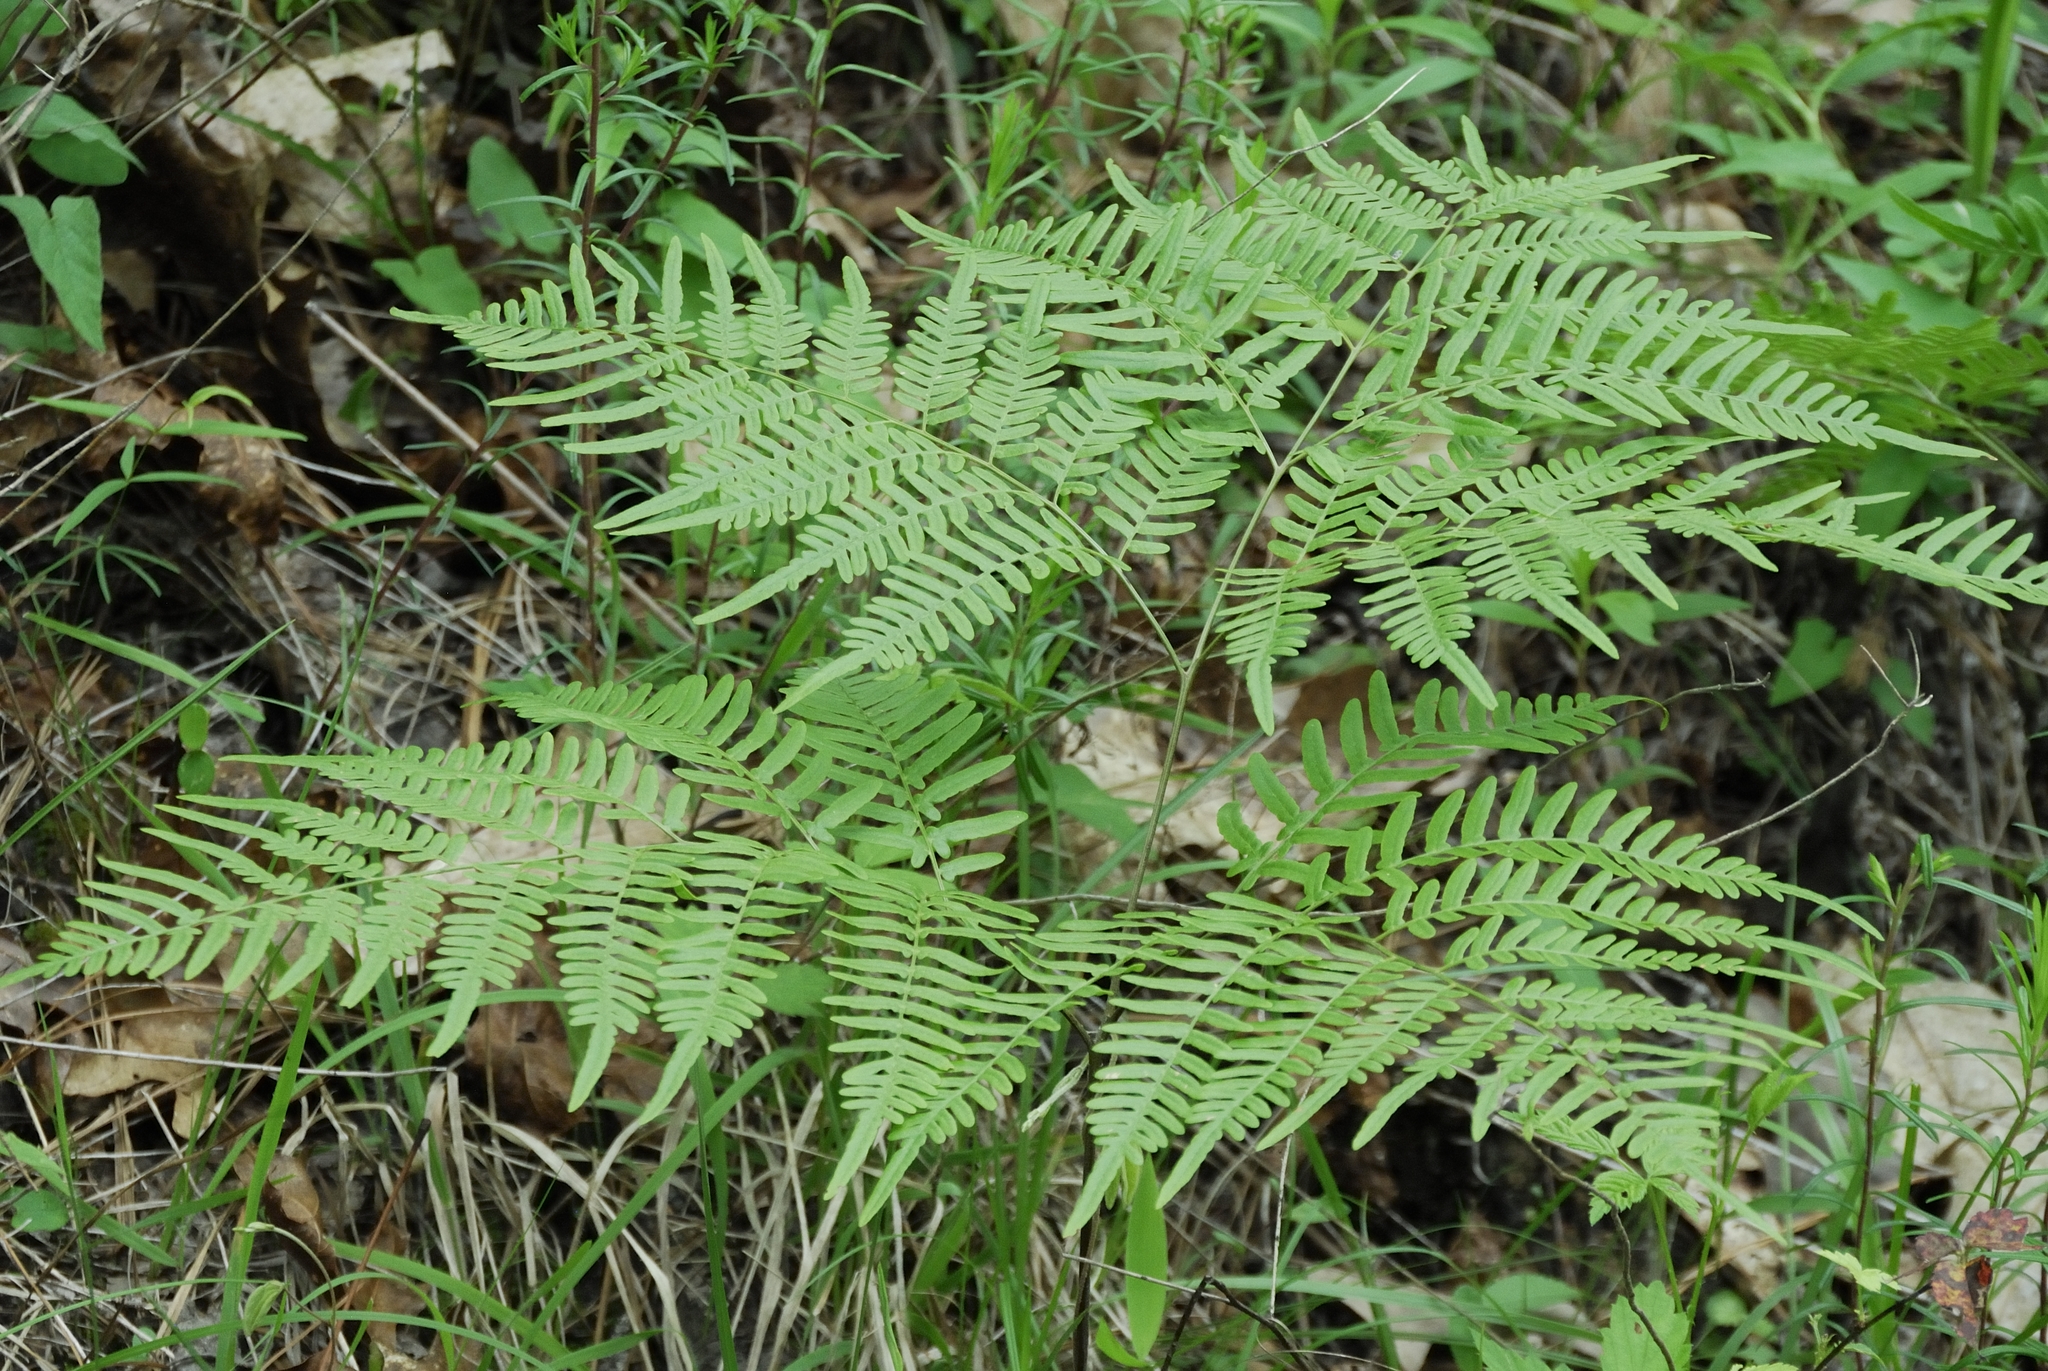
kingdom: Plantae
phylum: Tracheophyta
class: Polypodiopsida
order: Polypodiales
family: Dennstaedtiaceae
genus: Pteridium
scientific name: Pteridium aquilinum
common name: Bracken
